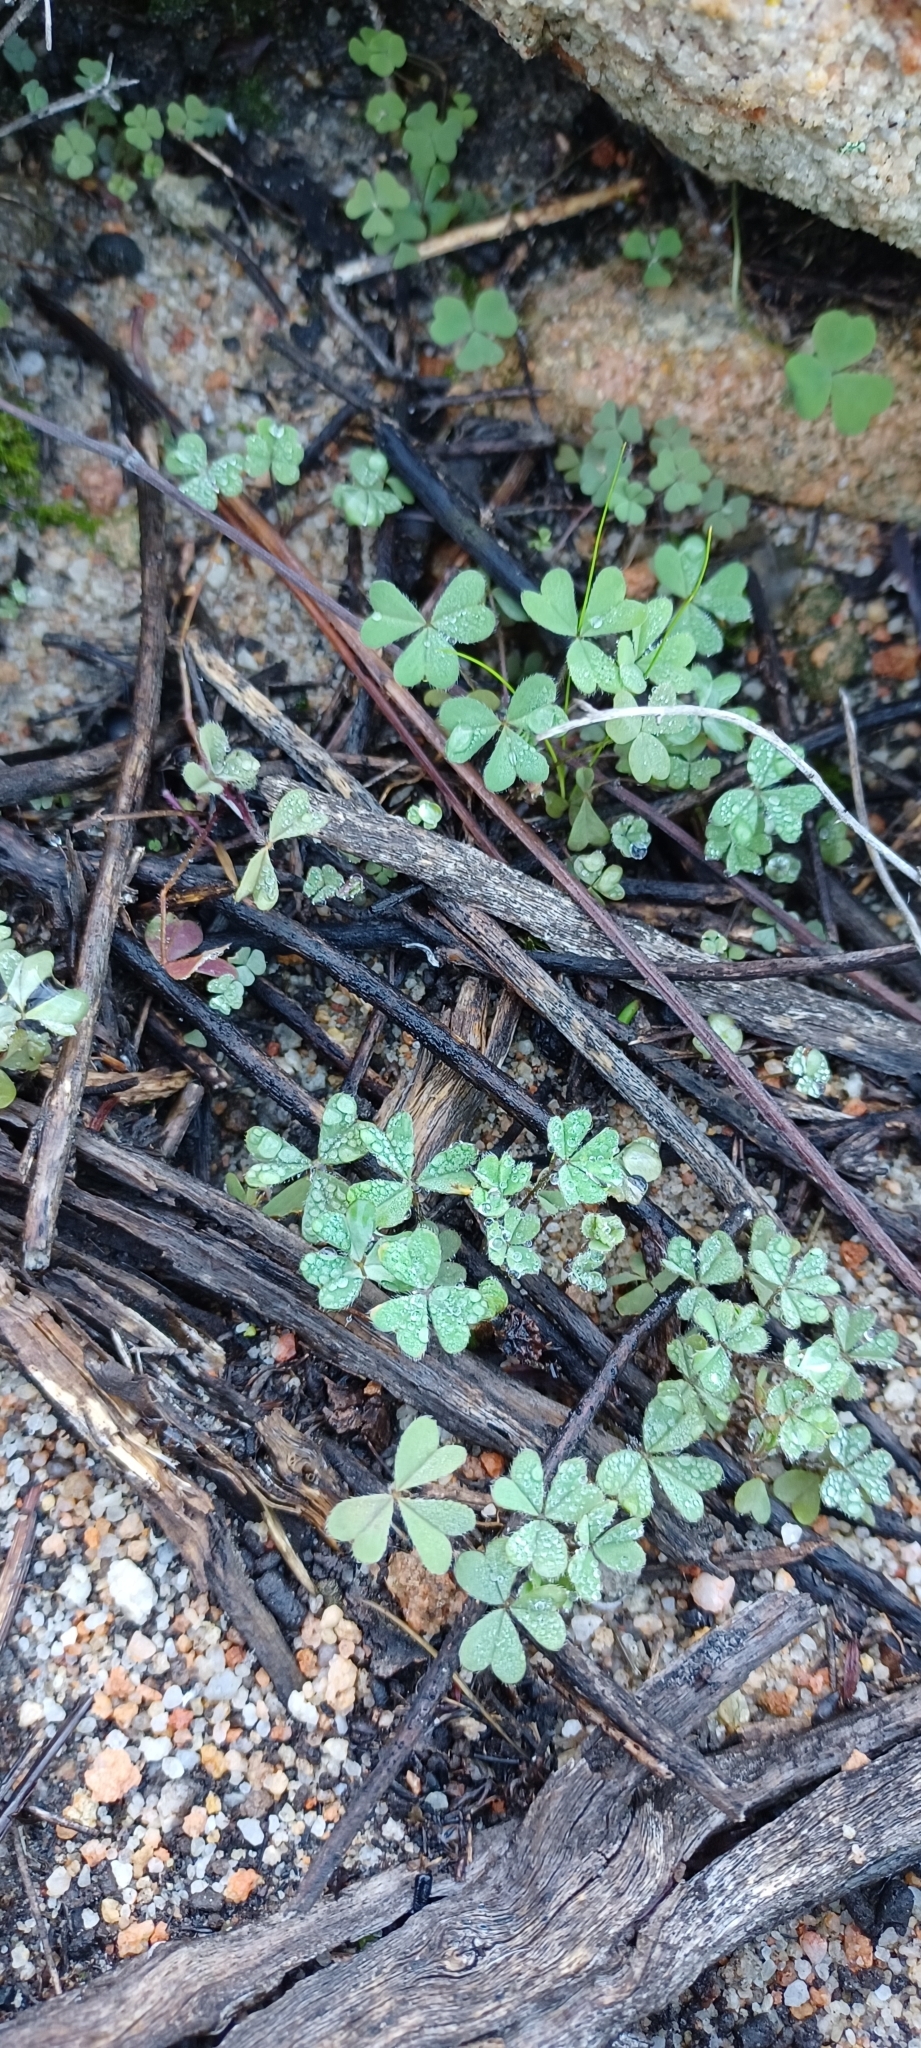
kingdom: Plantae
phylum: Tracheophyta
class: Magnoliopsida
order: Oxalidales
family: Oxalidaceae
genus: Oxalis
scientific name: Oxalis obtusa
